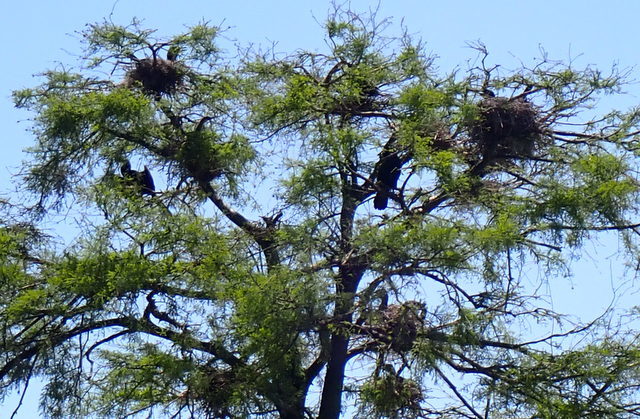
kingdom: Animalia
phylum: Chordata
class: Aves
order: Suliformes
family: Anhingidae
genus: Anhinga
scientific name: Anhinga anhinga
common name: Anhinga
